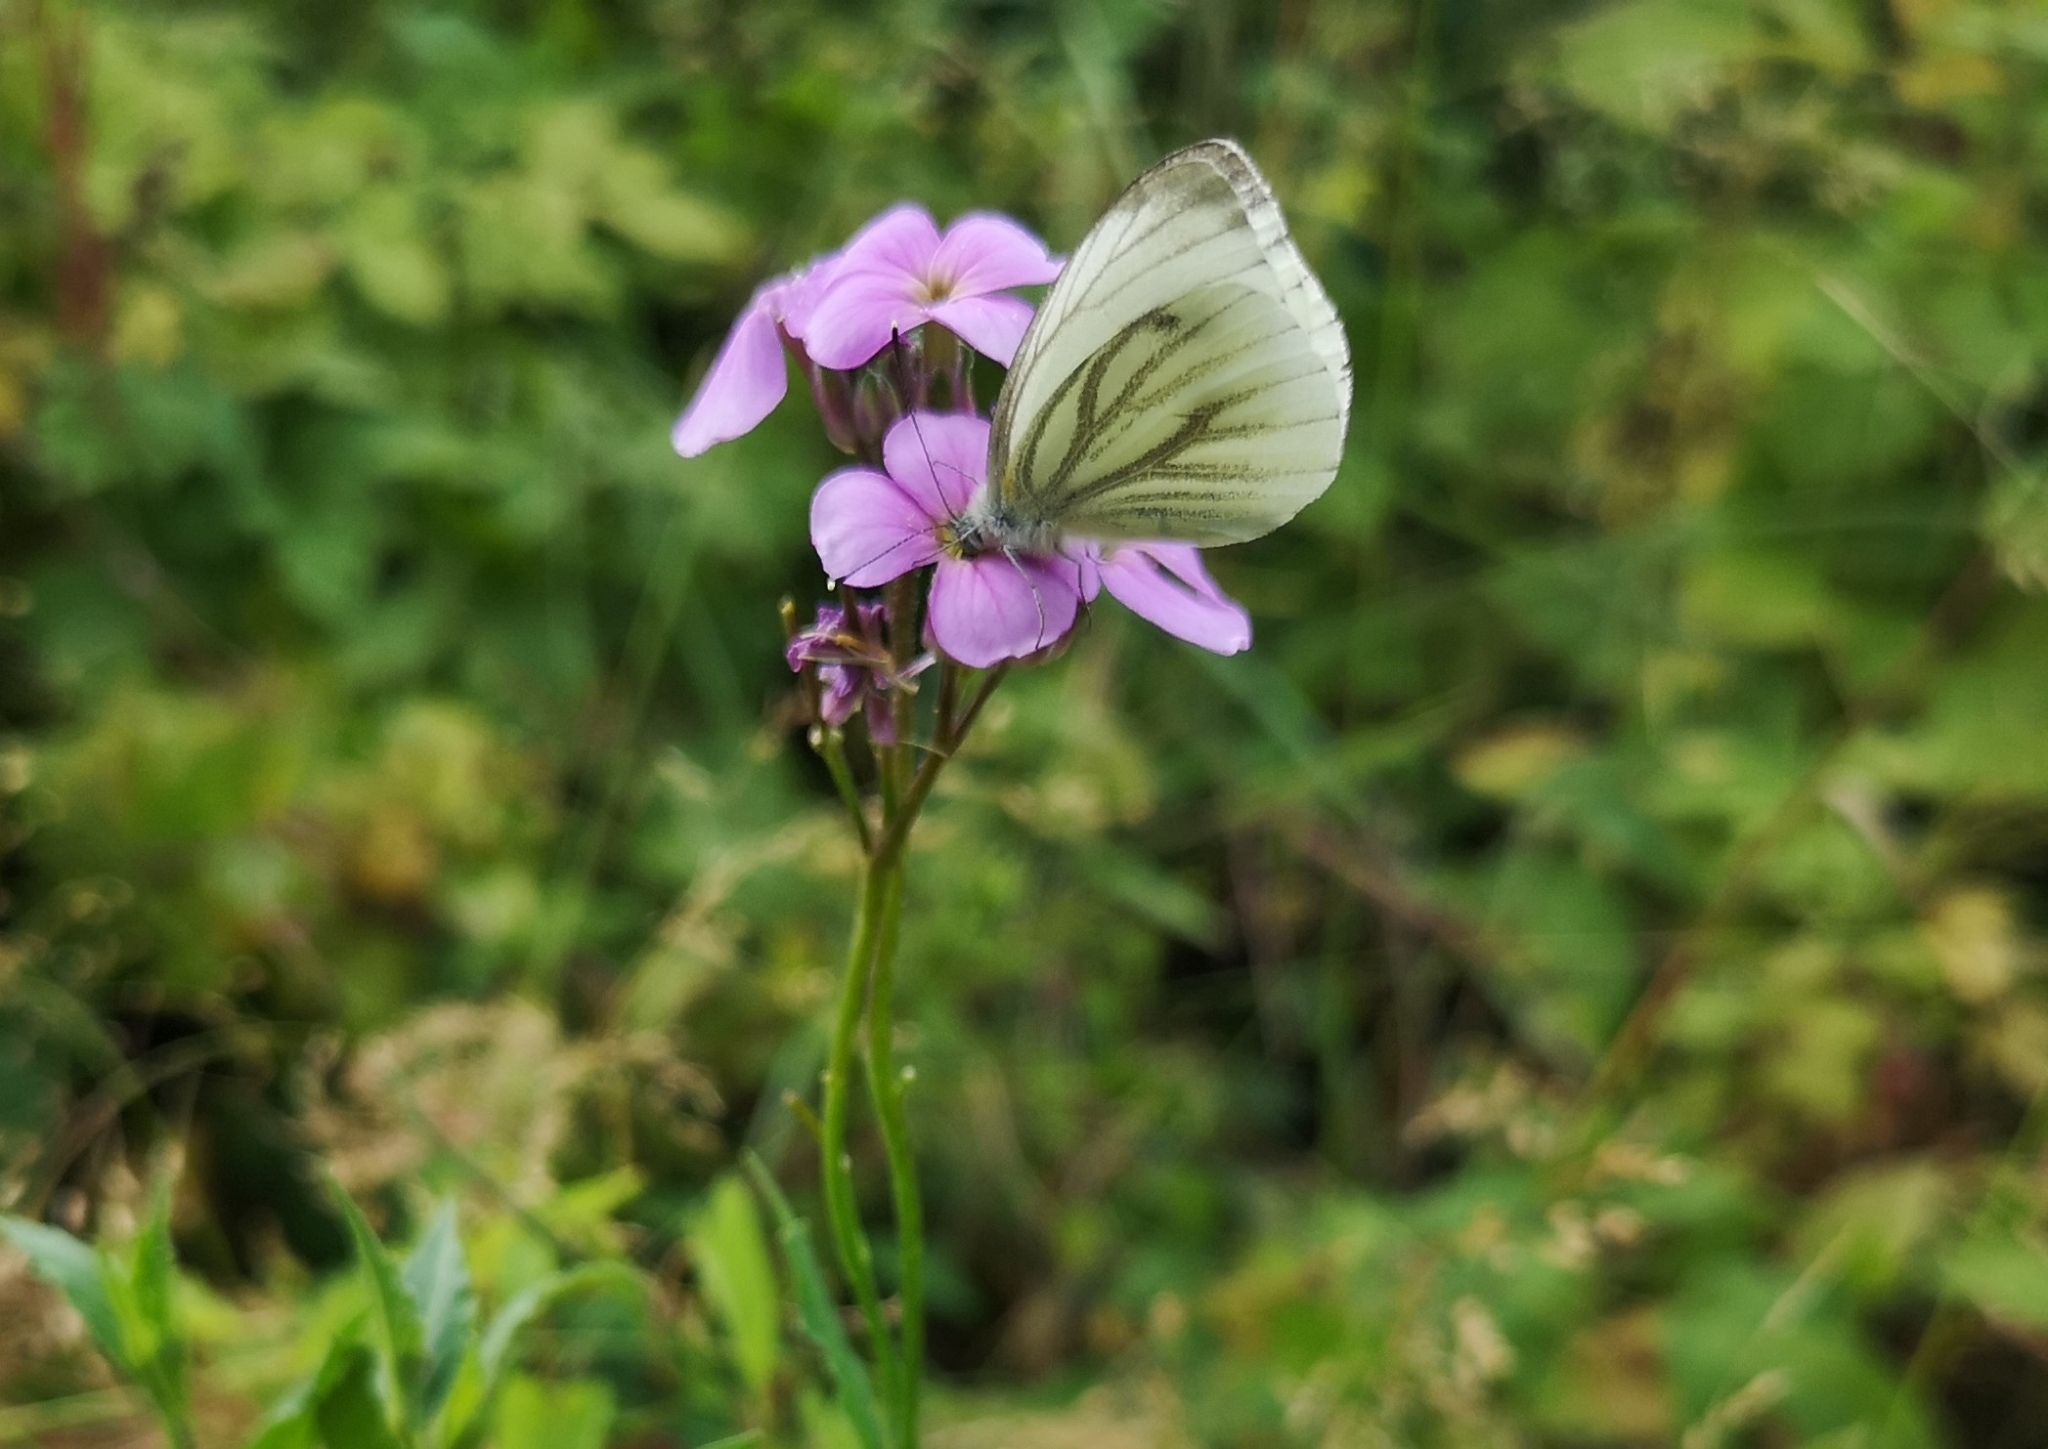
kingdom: Animalia
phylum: Arthropoda
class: Insecta
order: Lepidoptera
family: Pieridae
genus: Pieris
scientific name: Pieris napi
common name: Green-veined white
